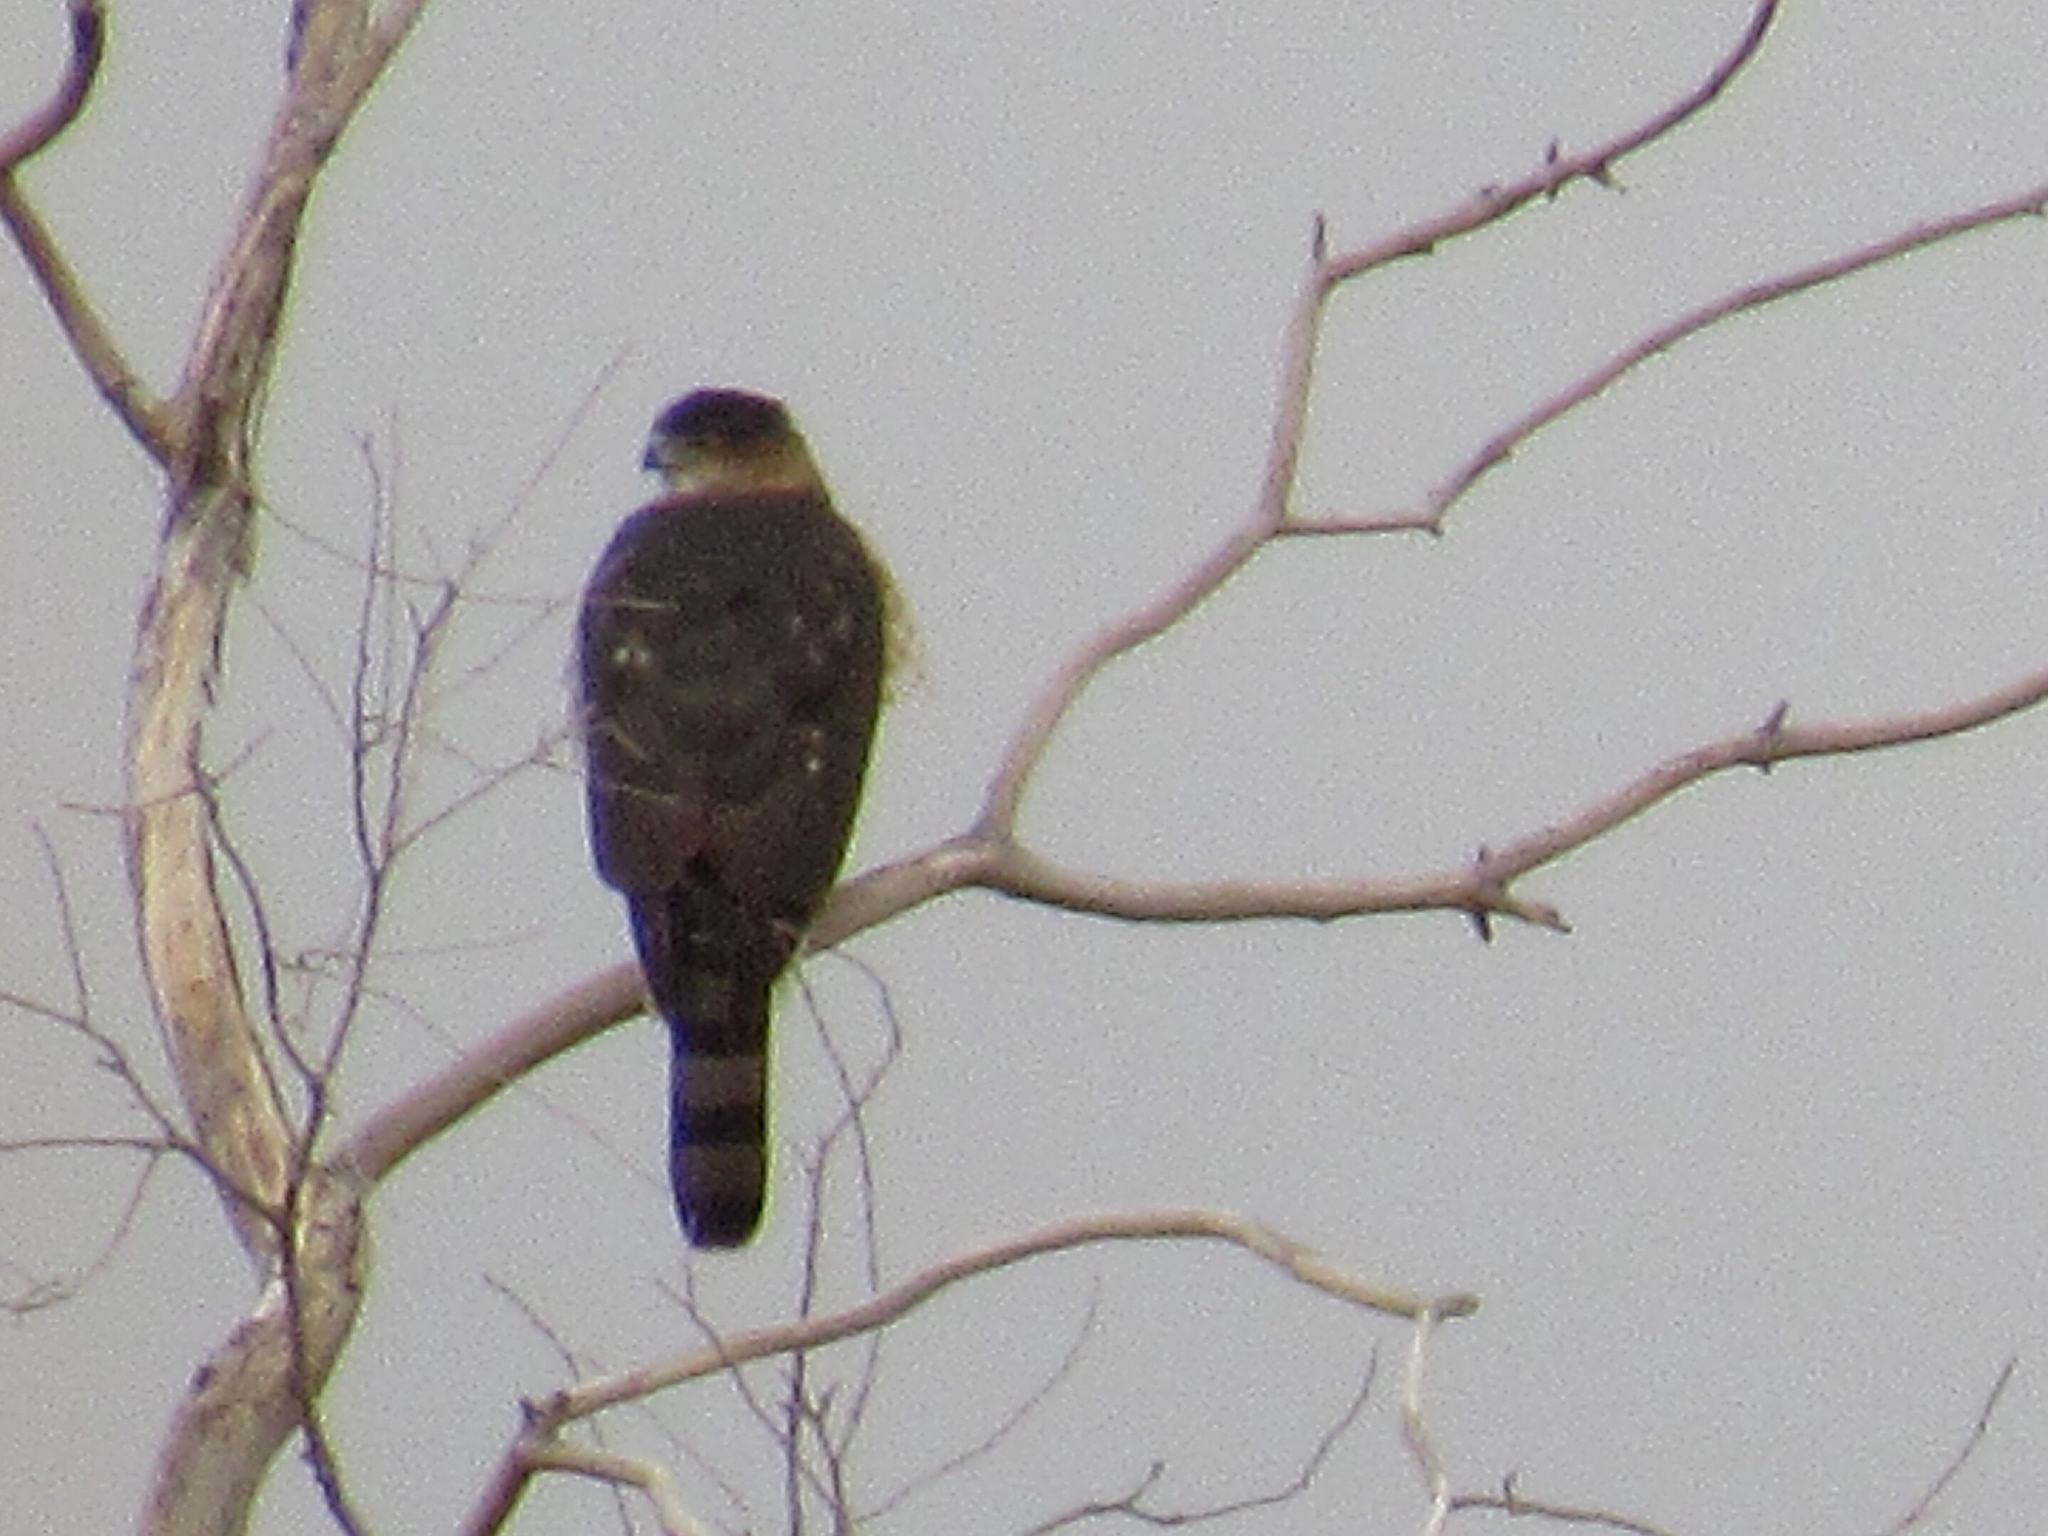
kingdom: Animalia
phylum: Chordata
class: Aves
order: Accipitriformes
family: Accipitridae
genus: Accipiter
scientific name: Accipiter cooperii
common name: Cooper's hawk
